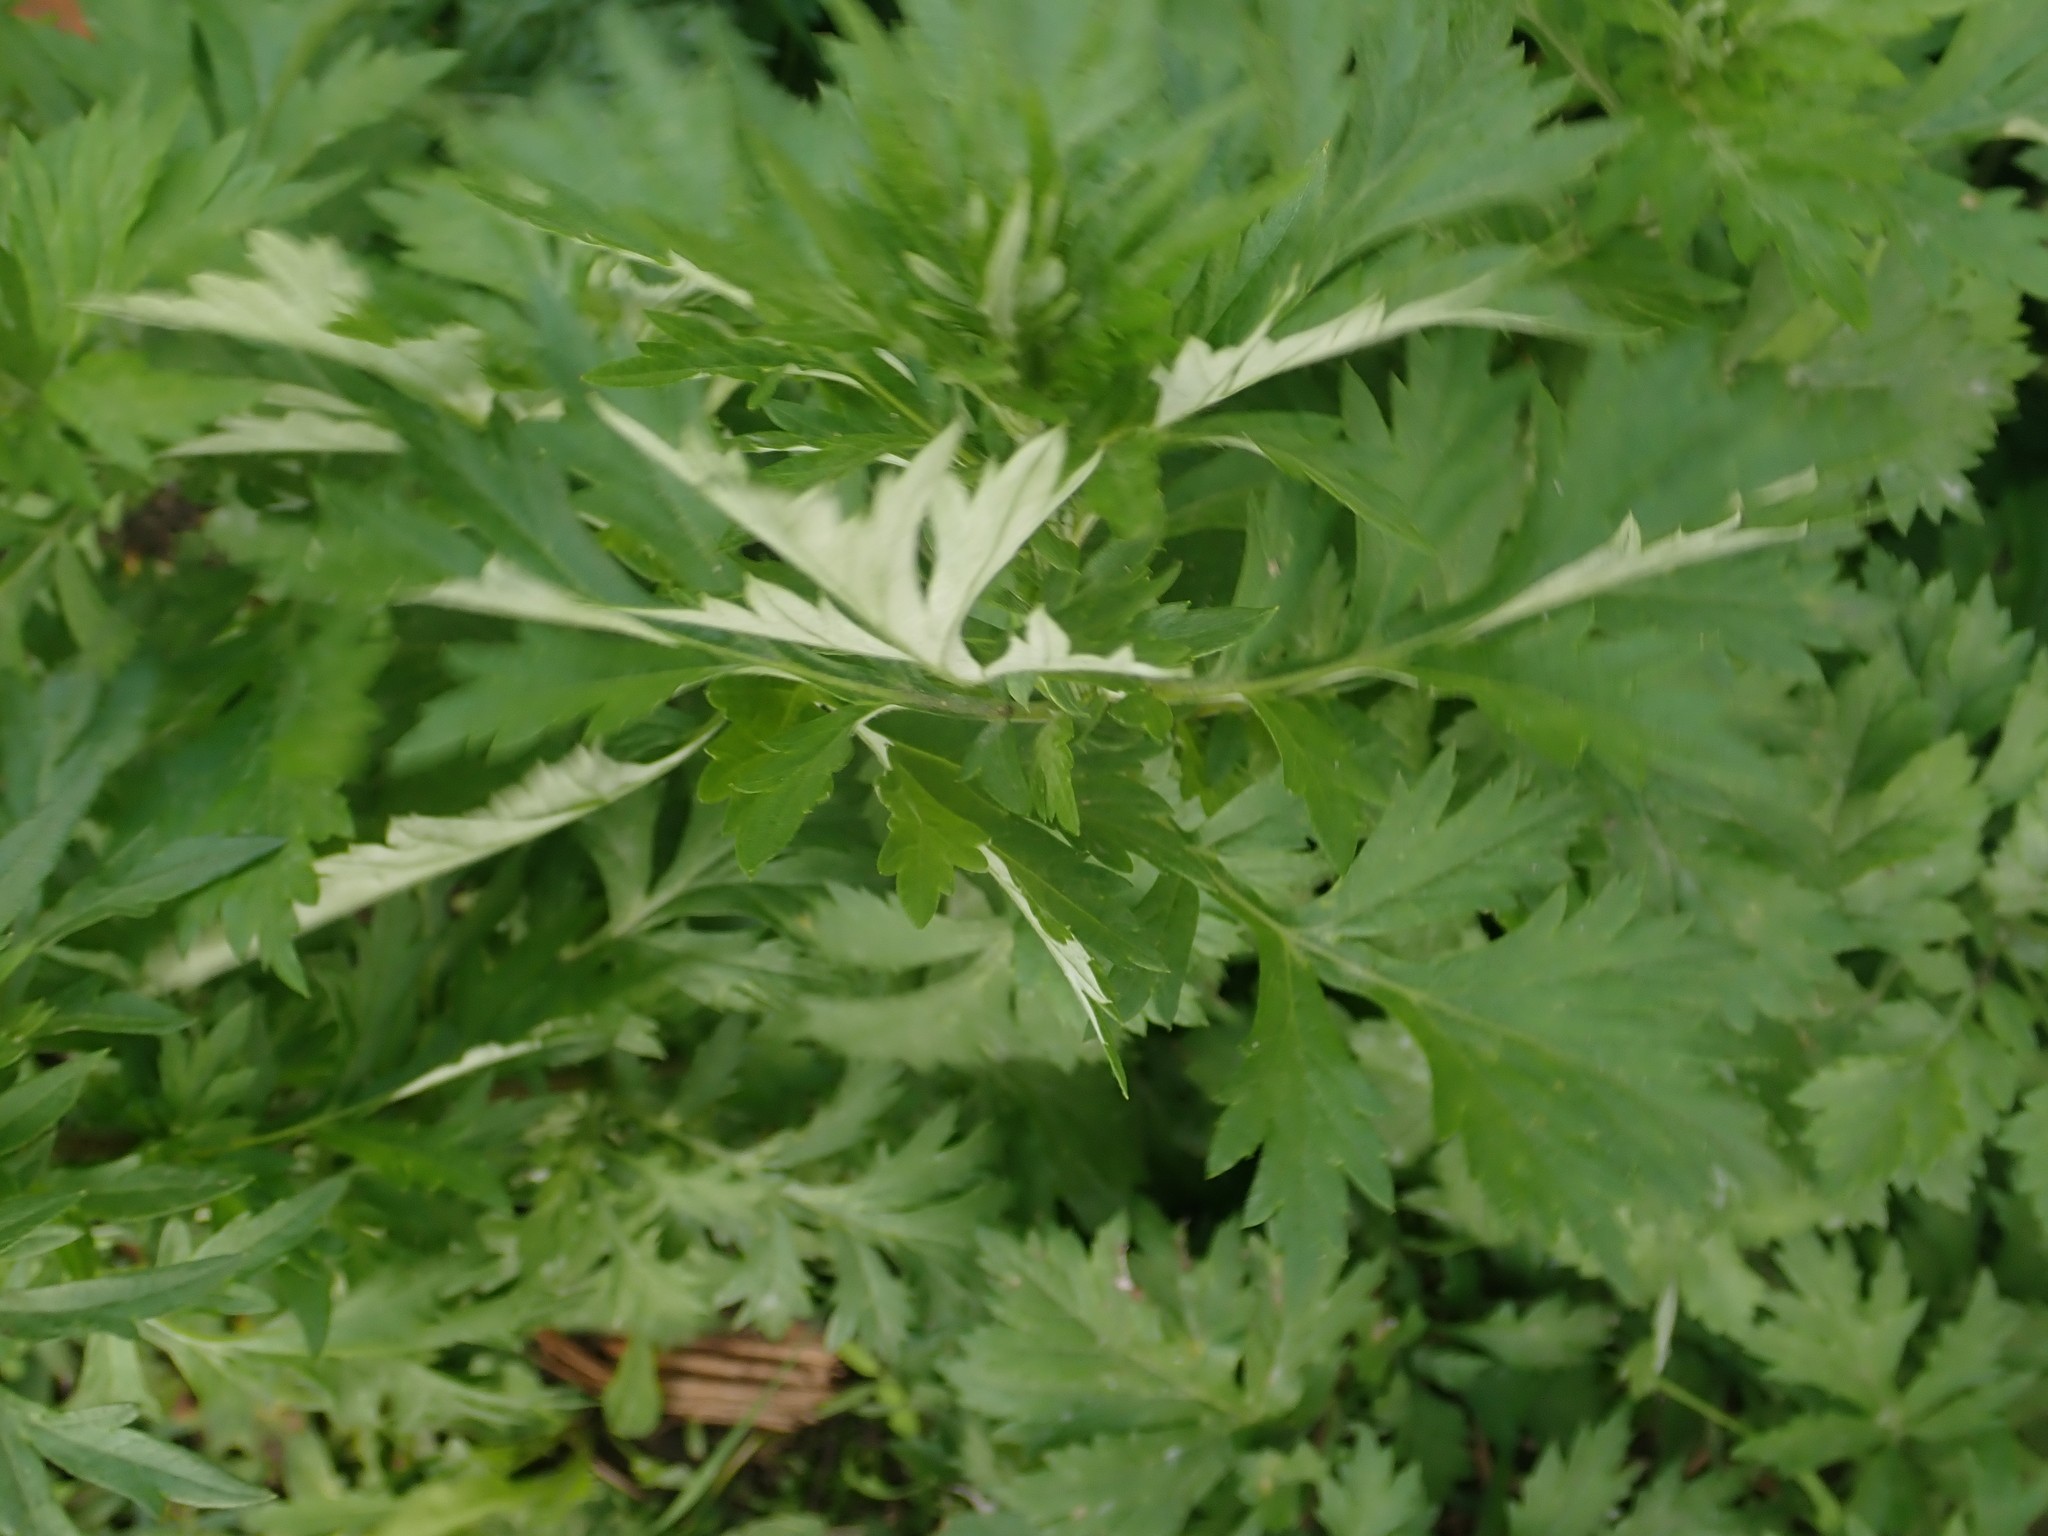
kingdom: Plantae
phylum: Tracheophyta
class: Magnoliopsida
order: Asterales
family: Asteraceae
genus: Artemisia
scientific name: Artemisia vulgaris
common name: Mugwort
